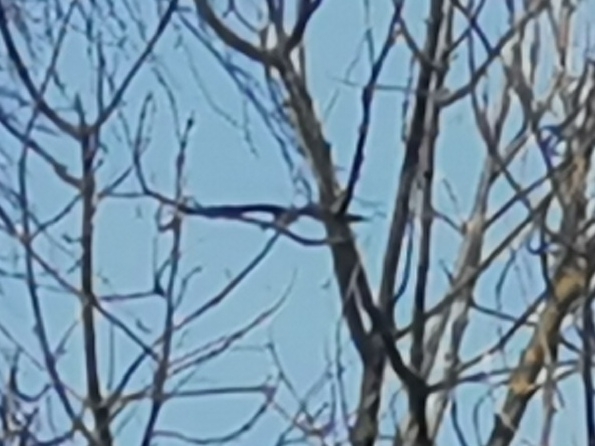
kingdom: Animalia
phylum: Chordata
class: Aves
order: Gruiformes
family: Gruidae
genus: Grus
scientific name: Grus grus
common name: Common crane
